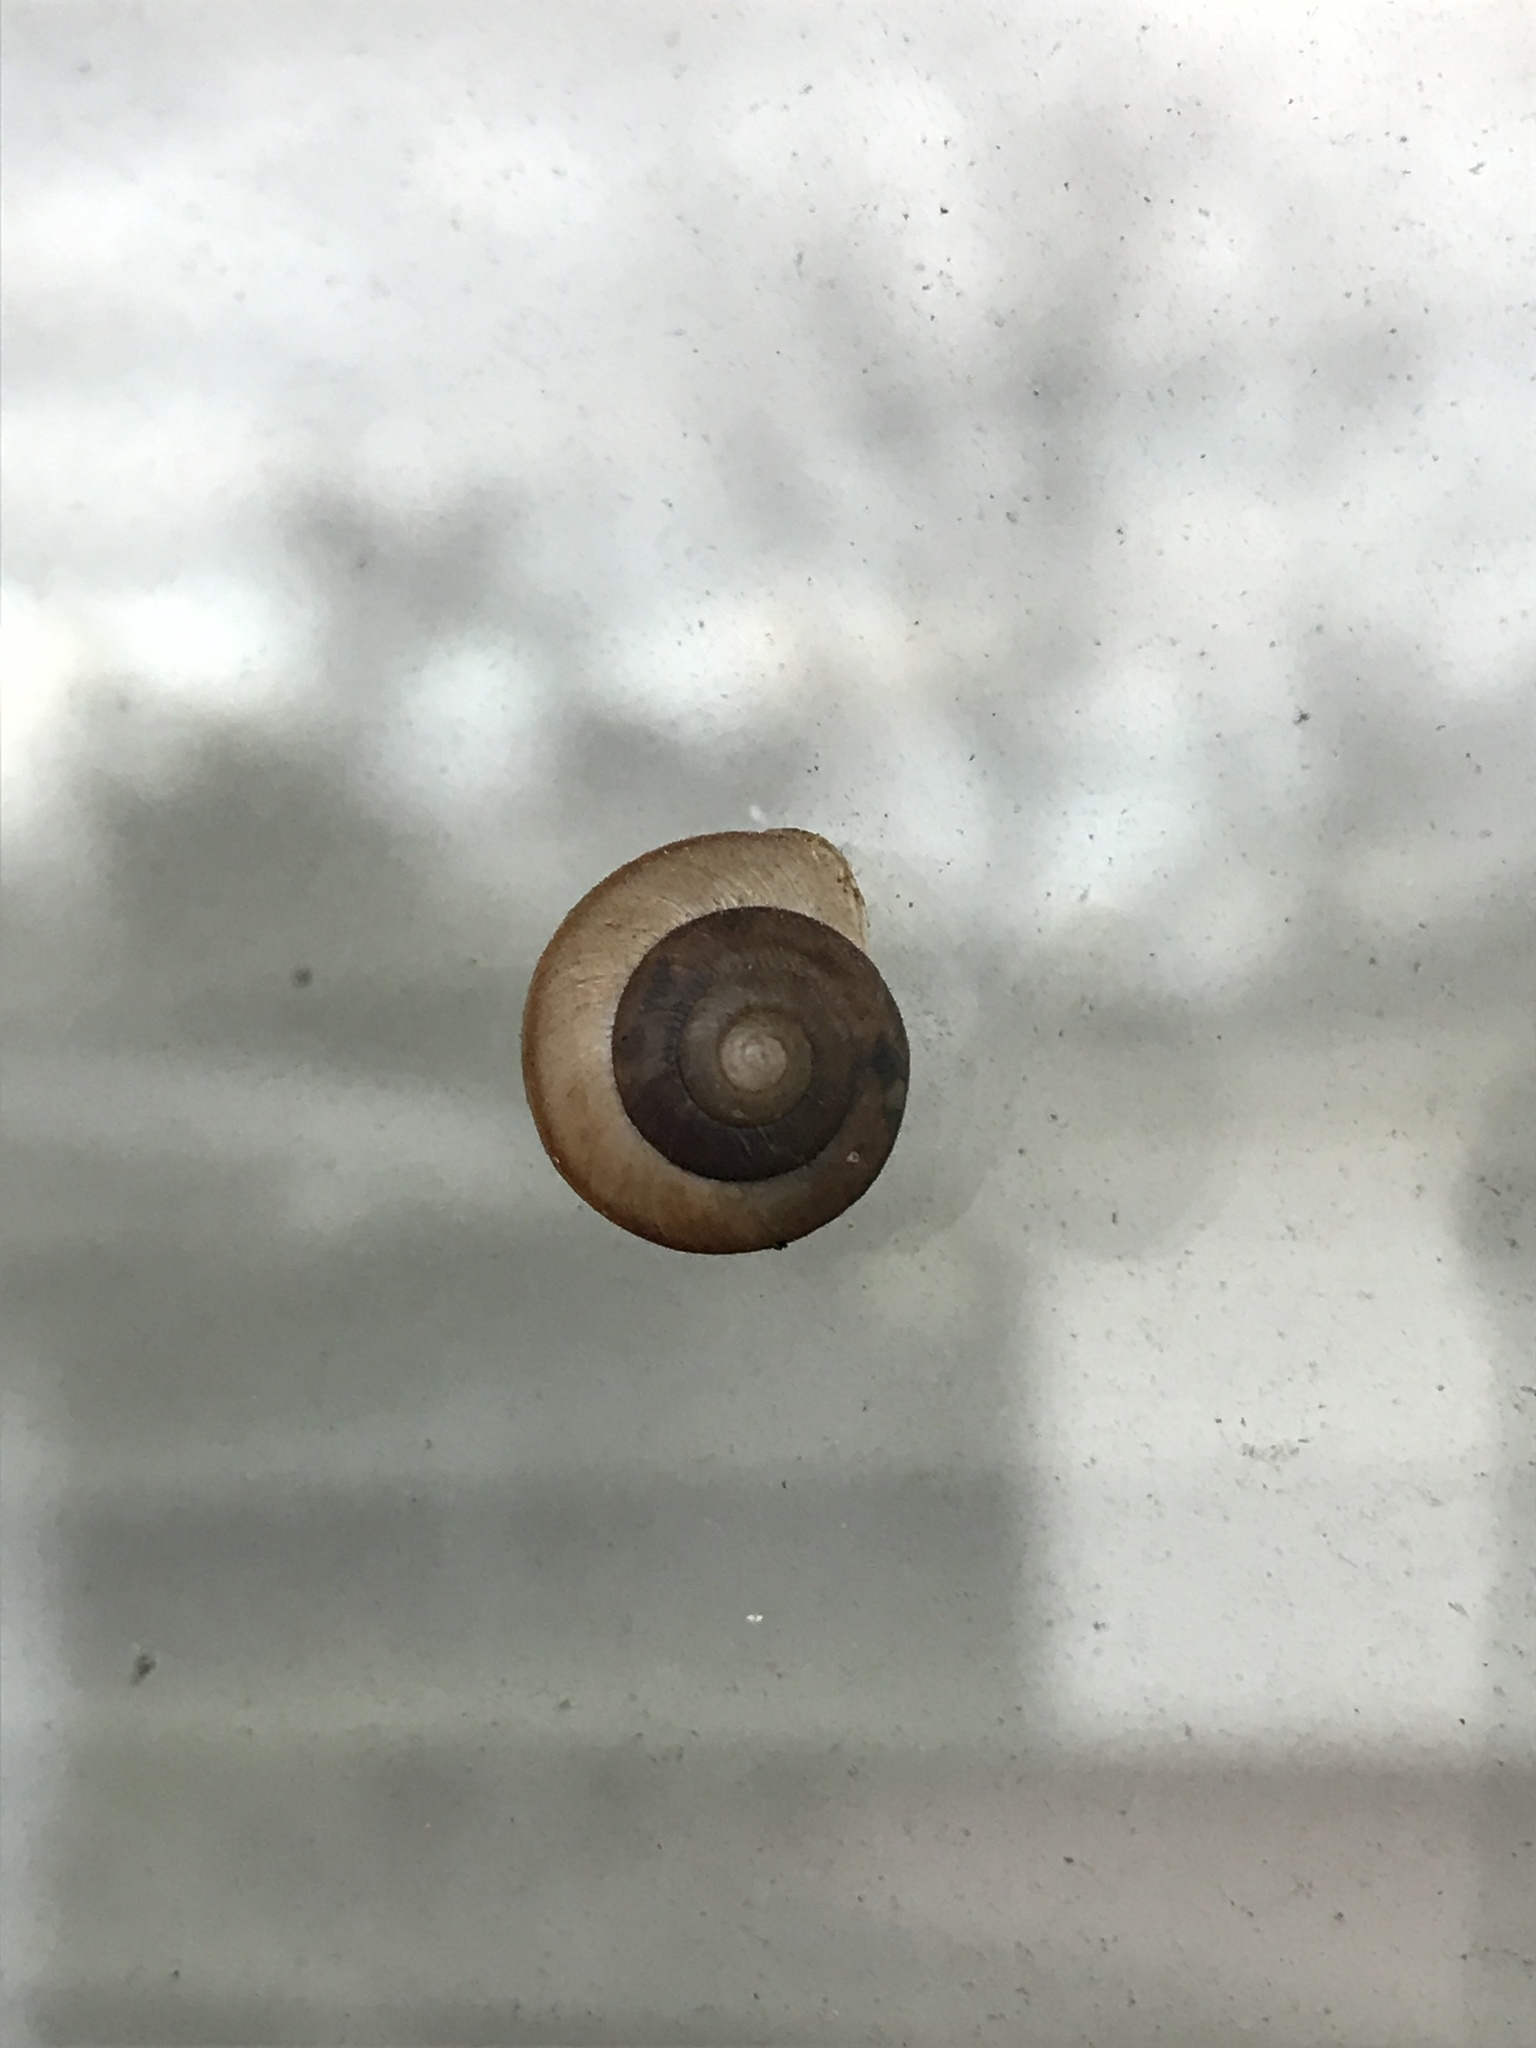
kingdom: Animalia
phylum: Mollusca
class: Gastropoda
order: Stylommatophora
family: Camaenidae
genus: Bradybaena
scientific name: Bradybaena similaris
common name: Asian trampsnail
